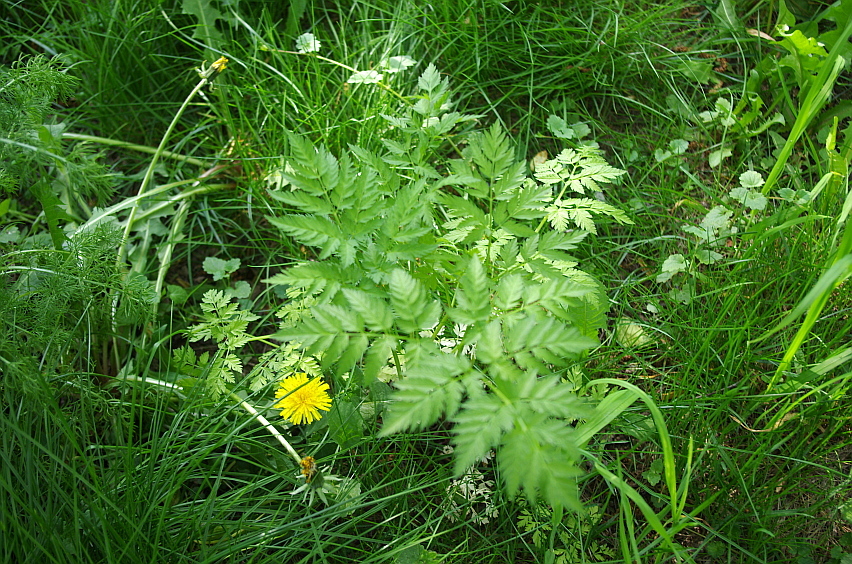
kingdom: Plantae
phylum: Tracheophyta
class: Magnoliopsida
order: Apiales
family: Apiaceae
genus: Anthriscus
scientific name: Anthriscus sylvestris
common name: Cow parsley
